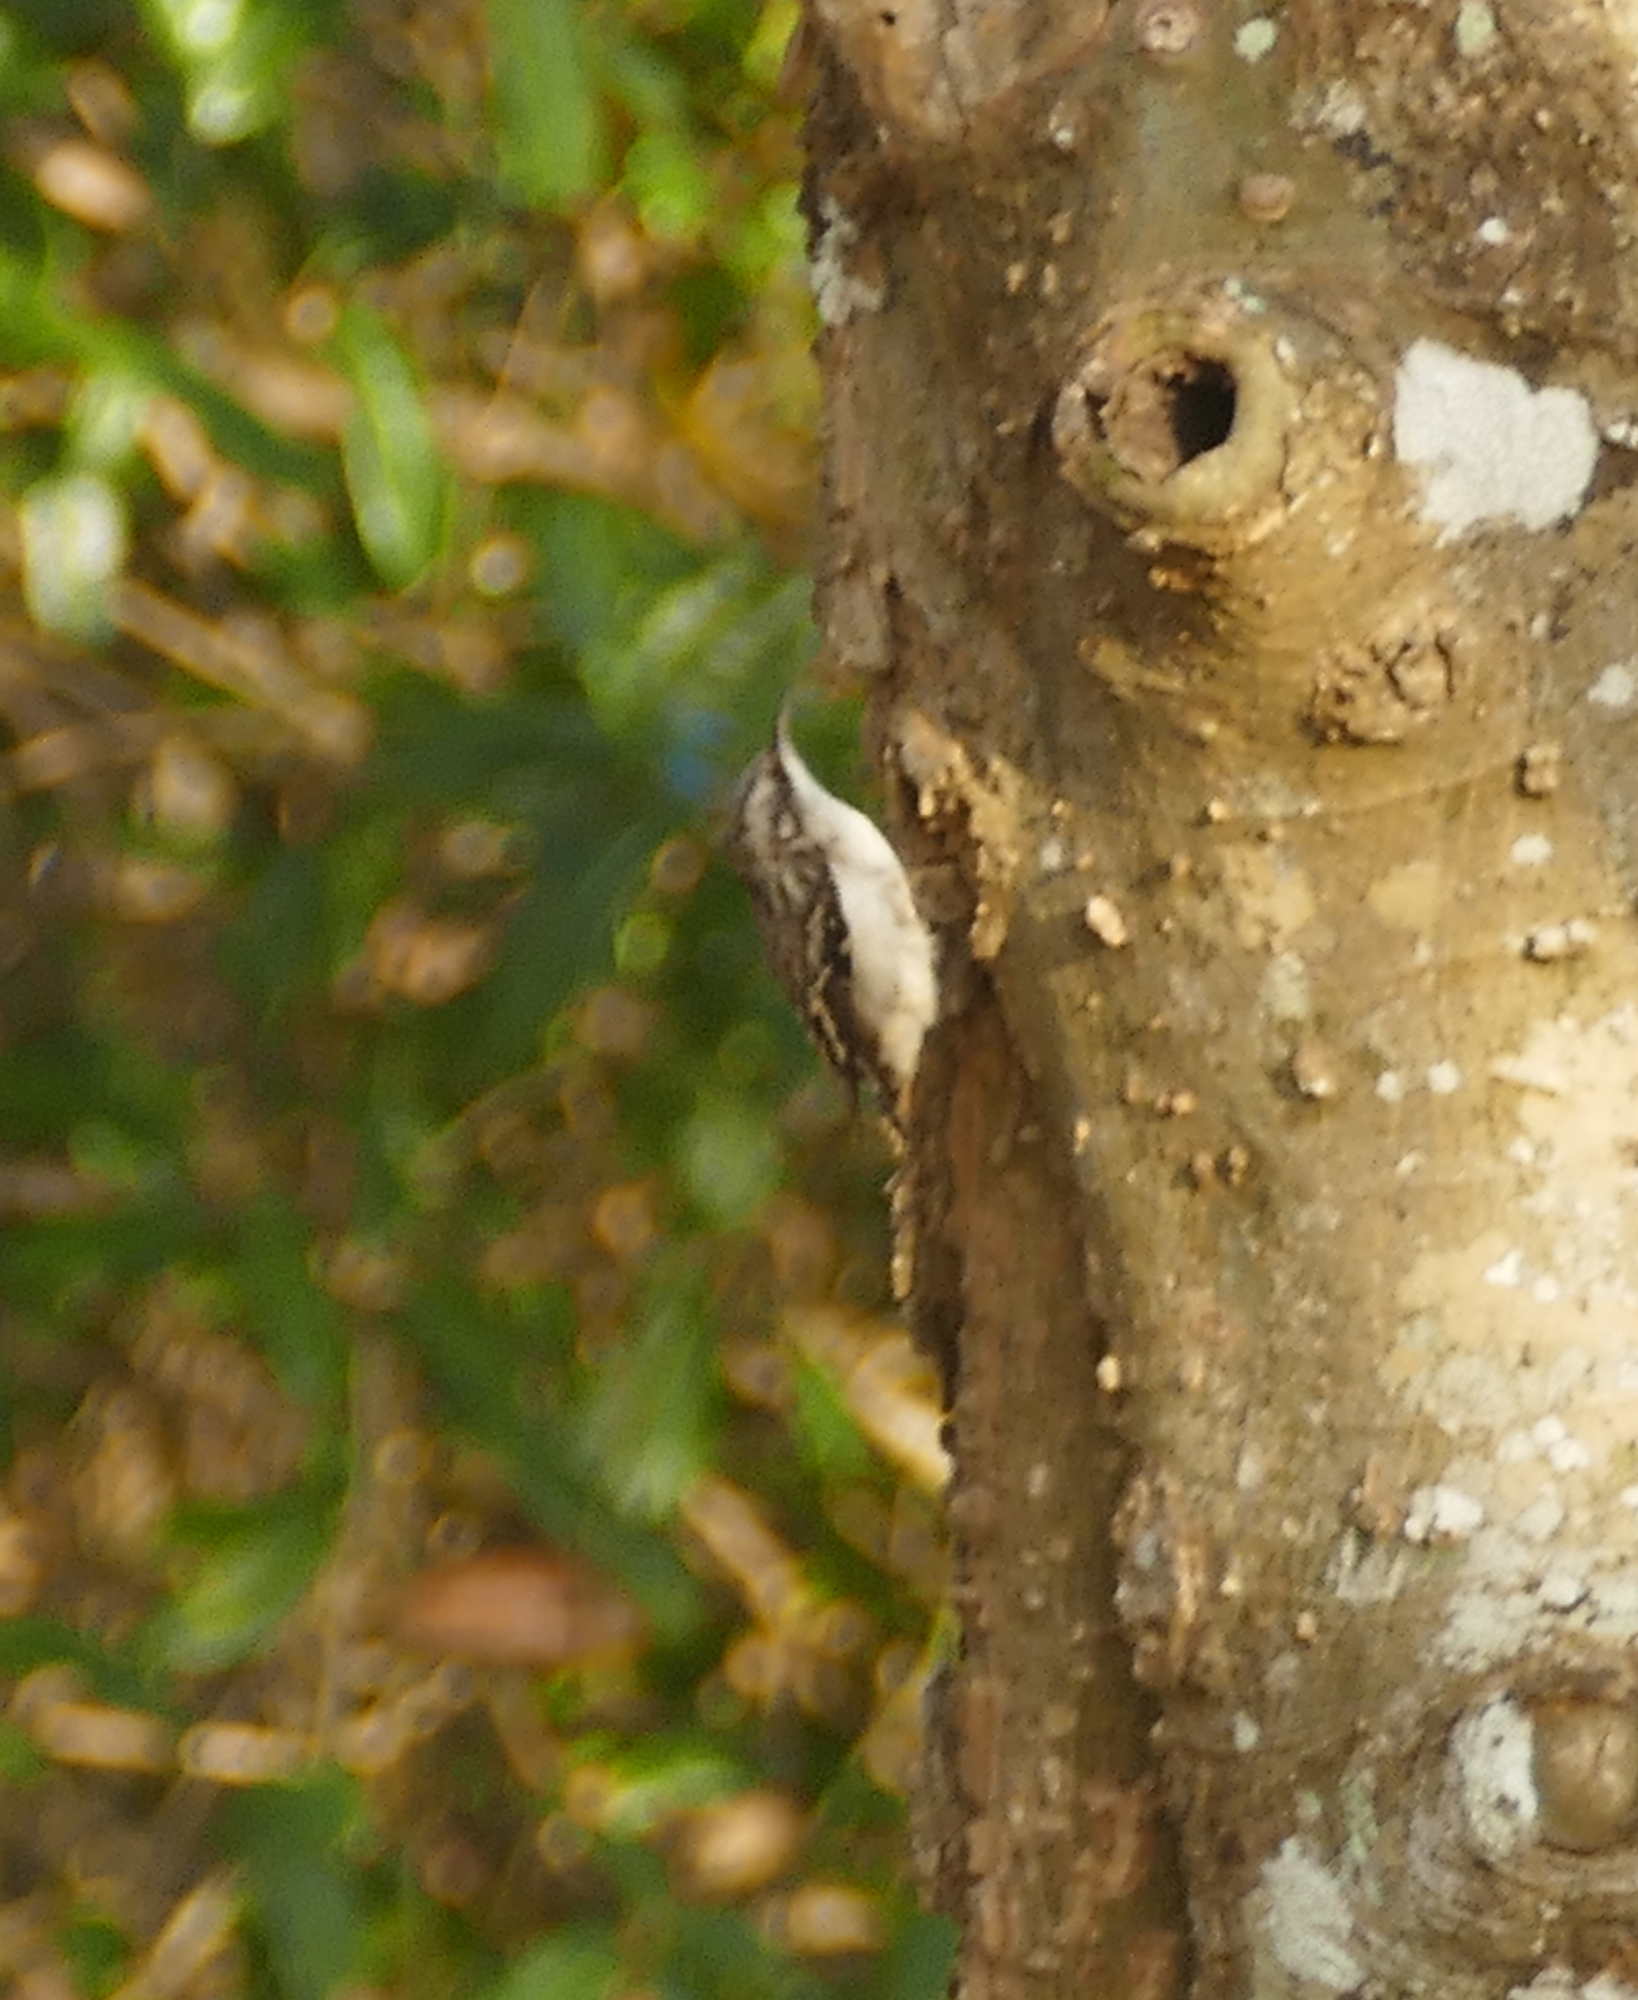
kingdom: Animalia
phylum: Chordata
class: Aves
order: Passeriformes
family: Certhiidae
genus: Certhia
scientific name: Certhia americana
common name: Brown creeper
